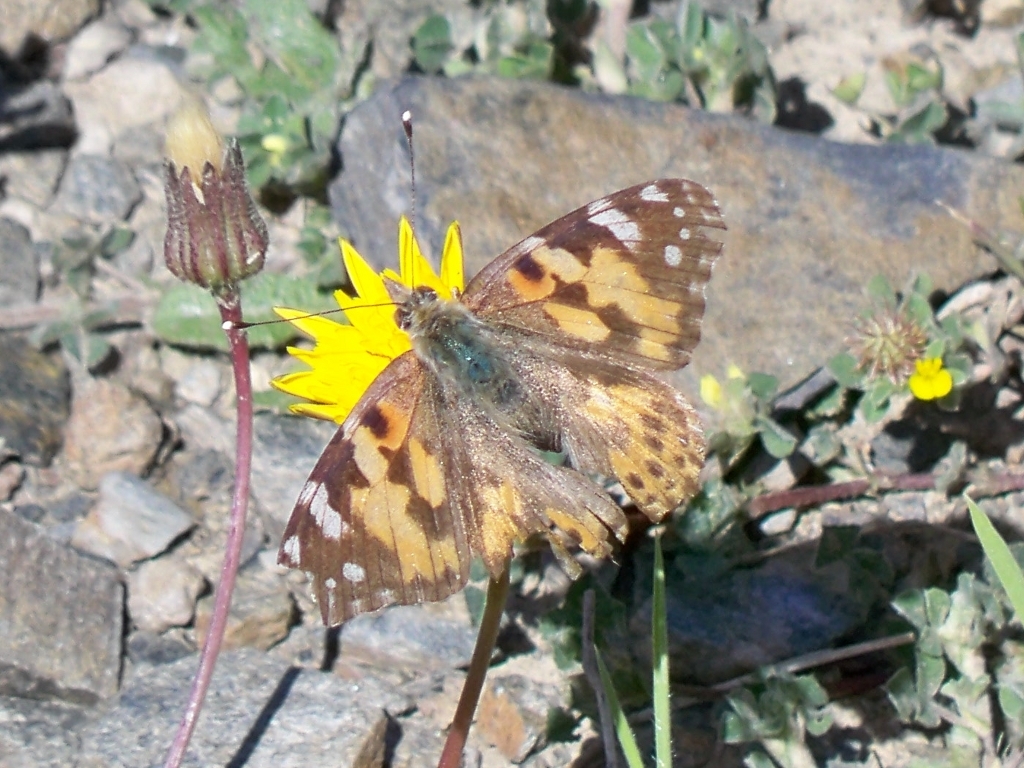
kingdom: Animalia
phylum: Arthropoda
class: Insecta
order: Lepidoptera
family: Nymphalidae
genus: Vanessa
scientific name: Vanessa cardui
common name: Painted lady
